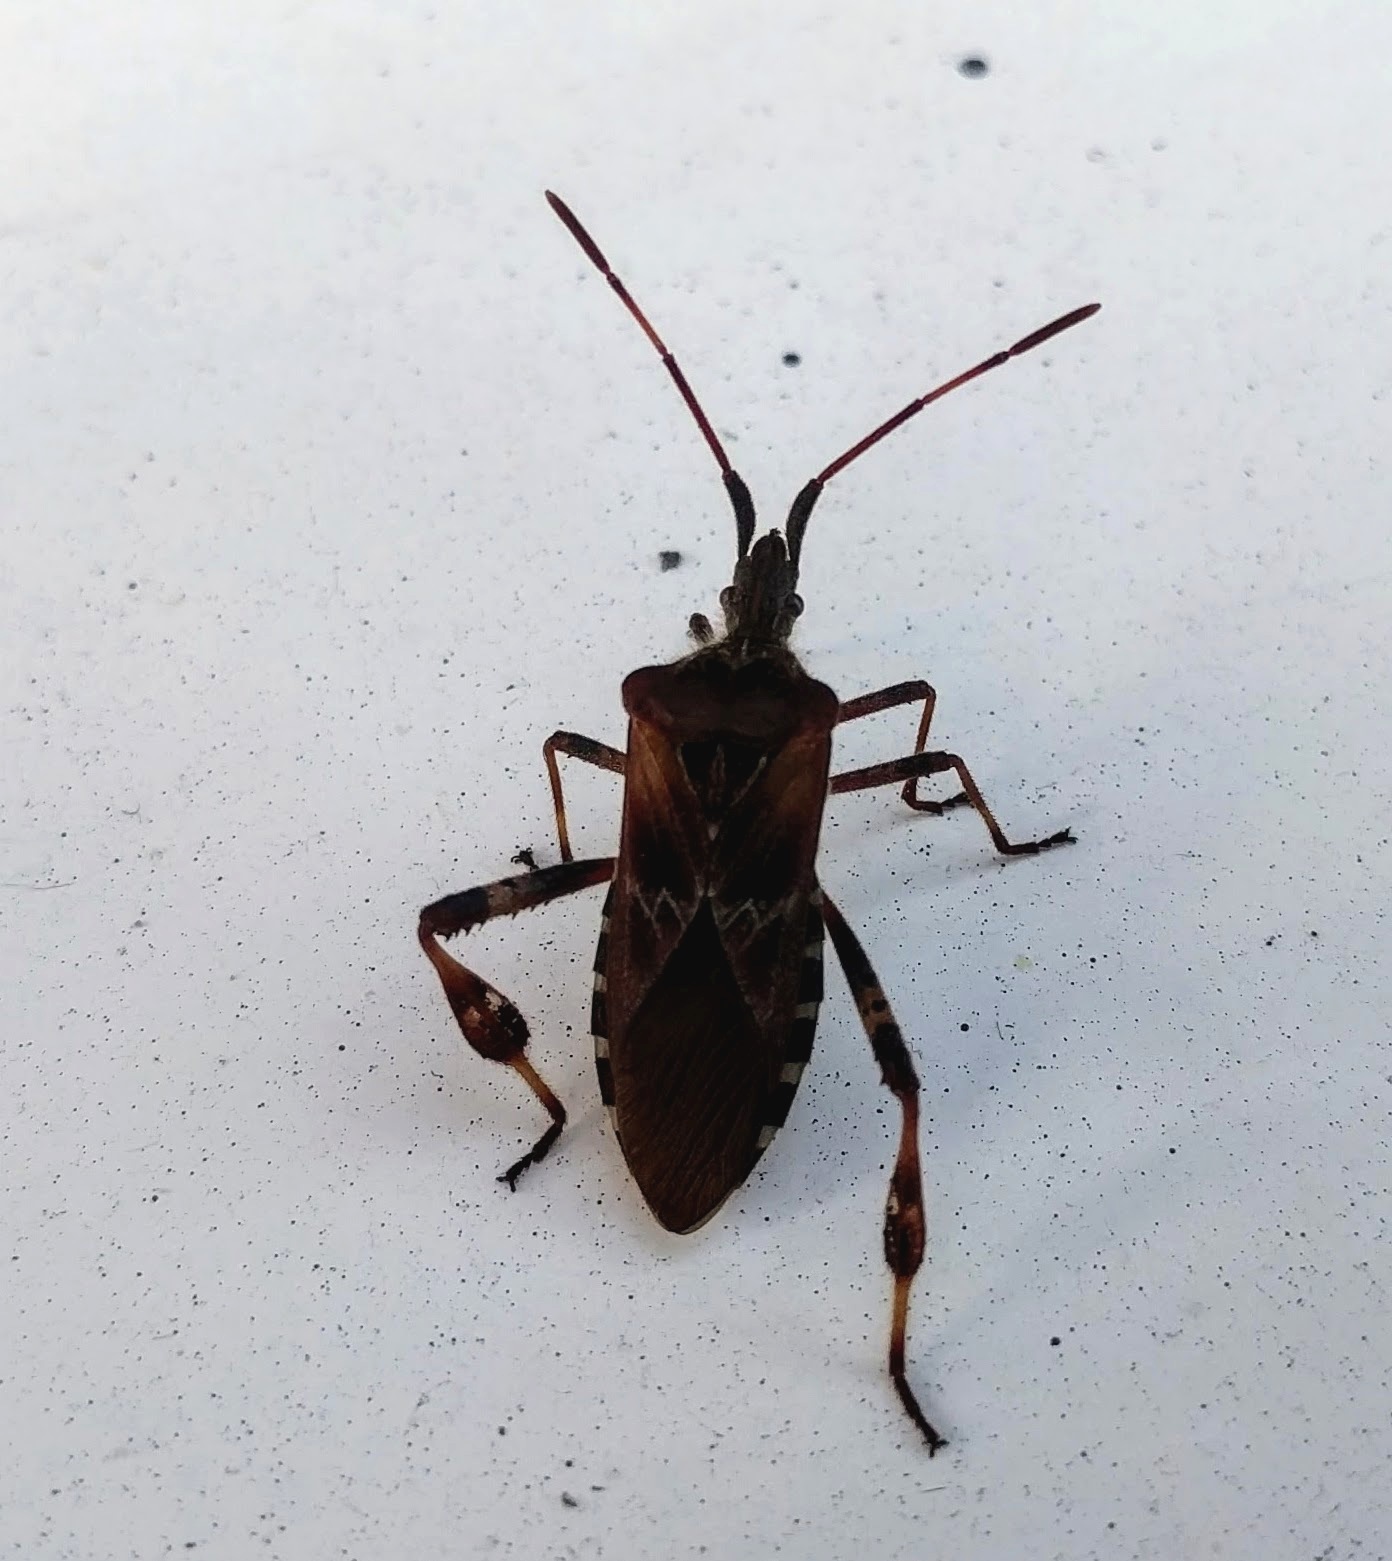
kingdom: Animalia
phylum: Arthropoda
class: Insecta
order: Hemiptera
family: Coreidae
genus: Leptoglossus
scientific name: Leptoglossus occidentalis
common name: Western conifer-seed bug
